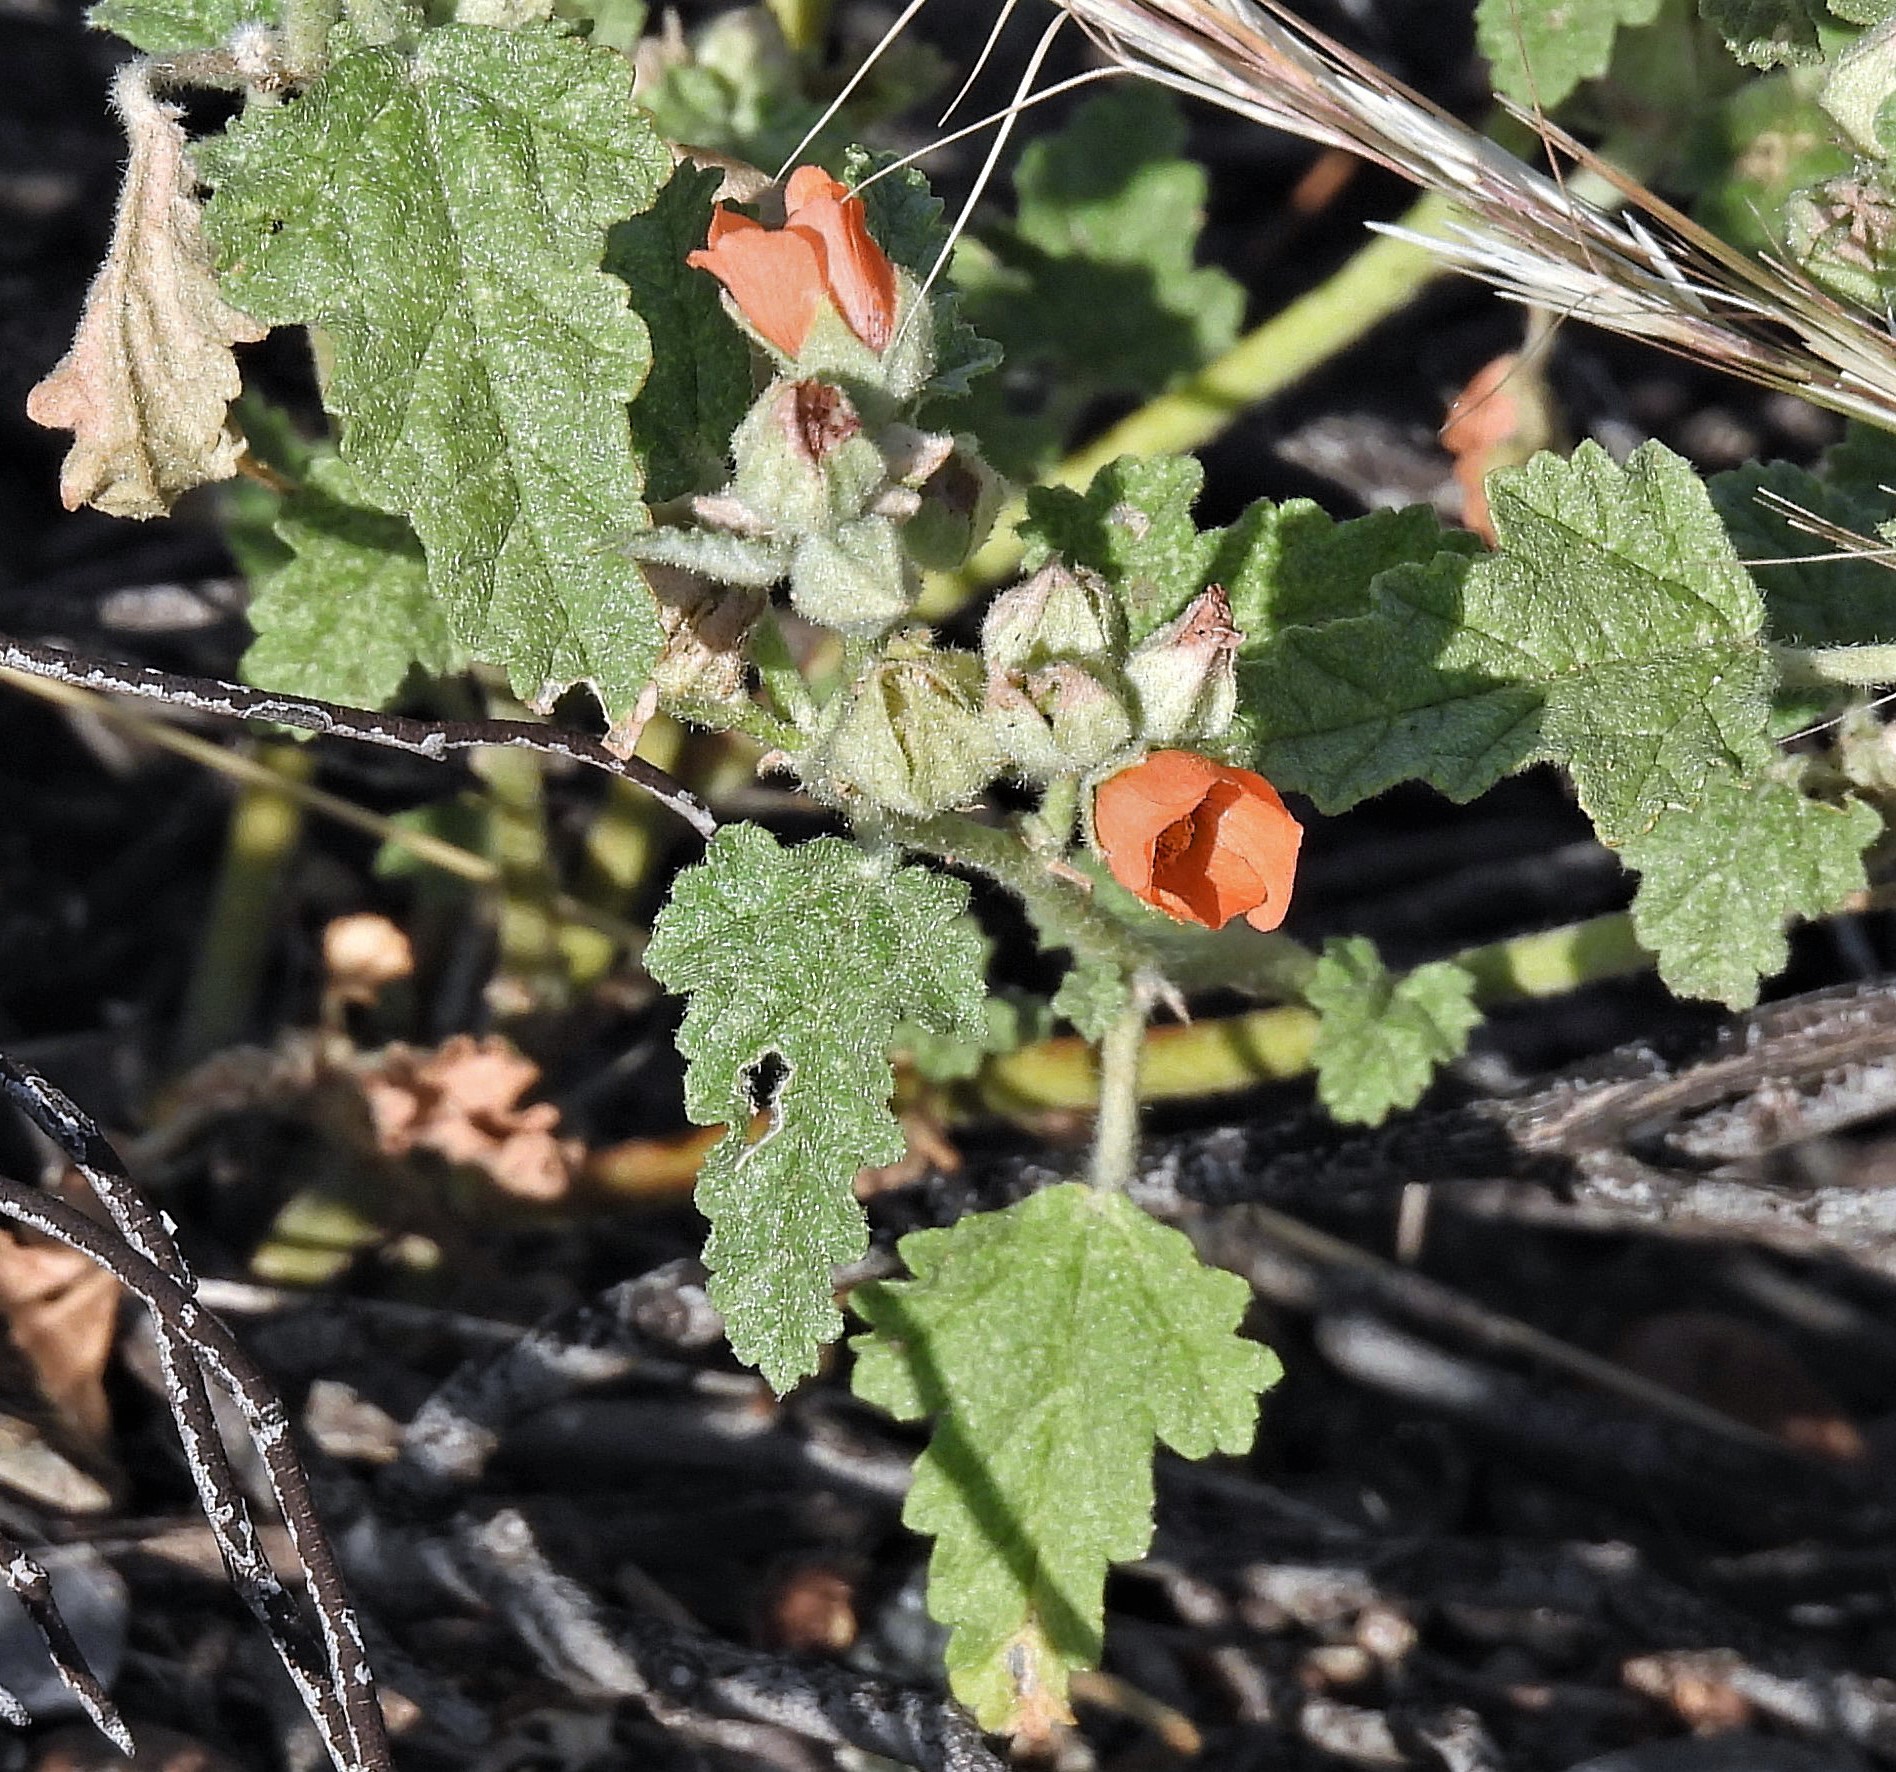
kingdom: Plantae
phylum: Tracheophyta
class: Magnoliopsida
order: Malvales
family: Malvaceae
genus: Sphaeralcea
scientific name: Sphaeralcea miniata
